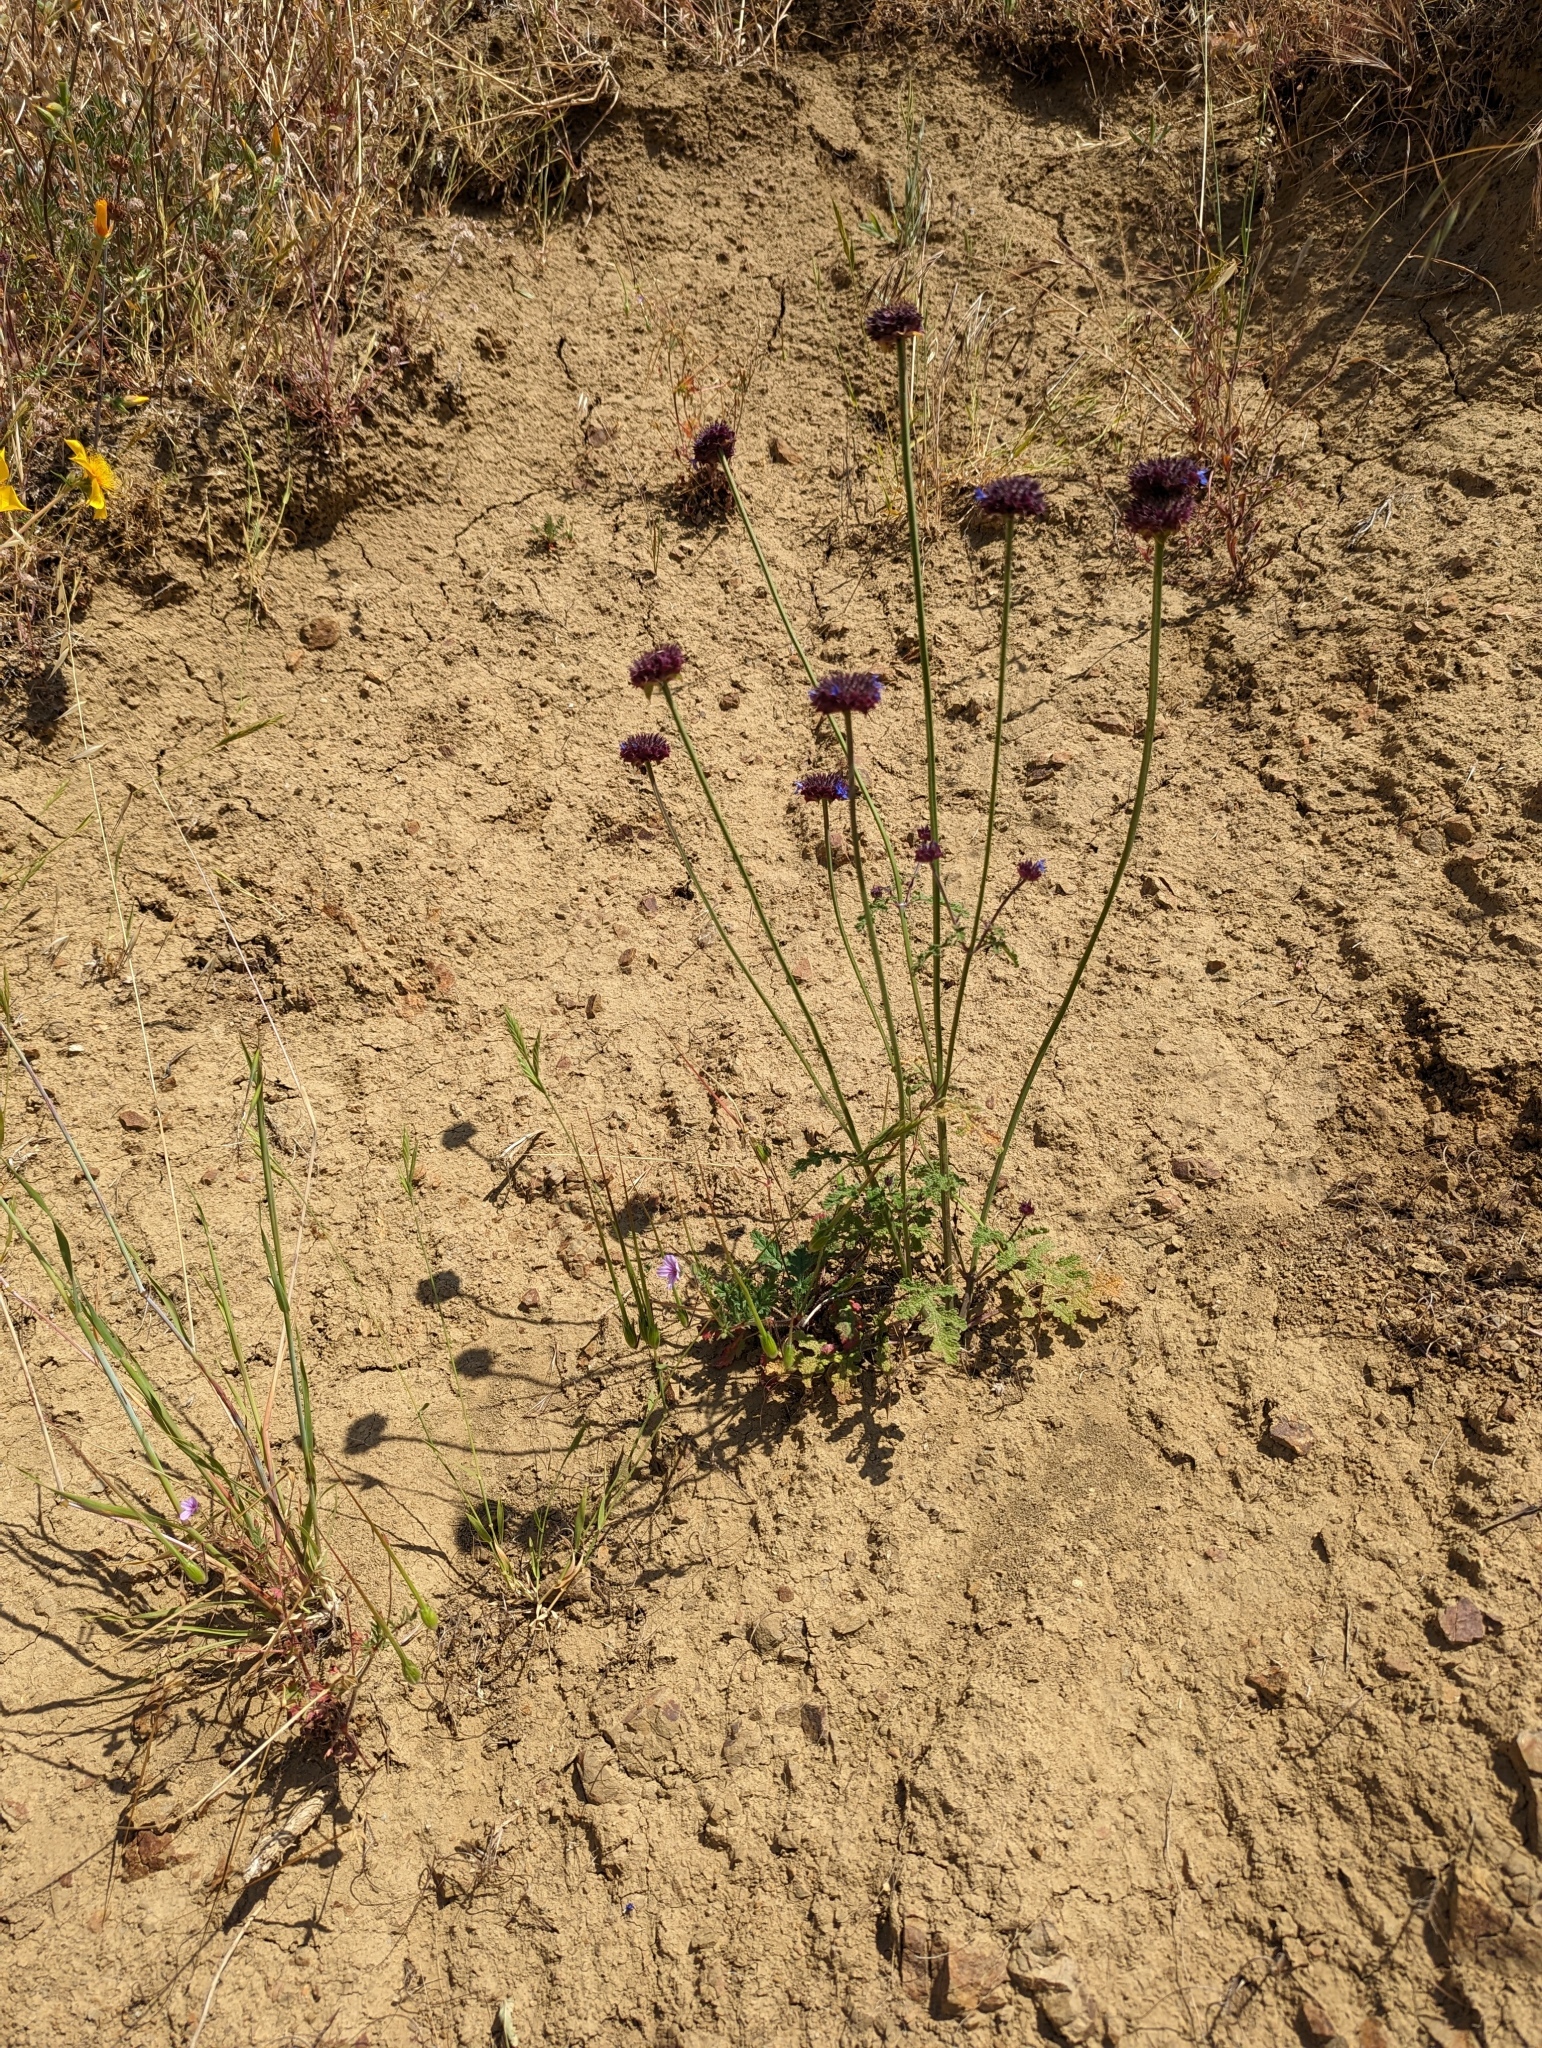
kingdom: Plantae
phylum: Tracheophyta
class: Magnoliopsida
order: Lamiales
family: Lamiaceae
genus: Salvia
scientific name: Salvia columbariae
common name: Chia
